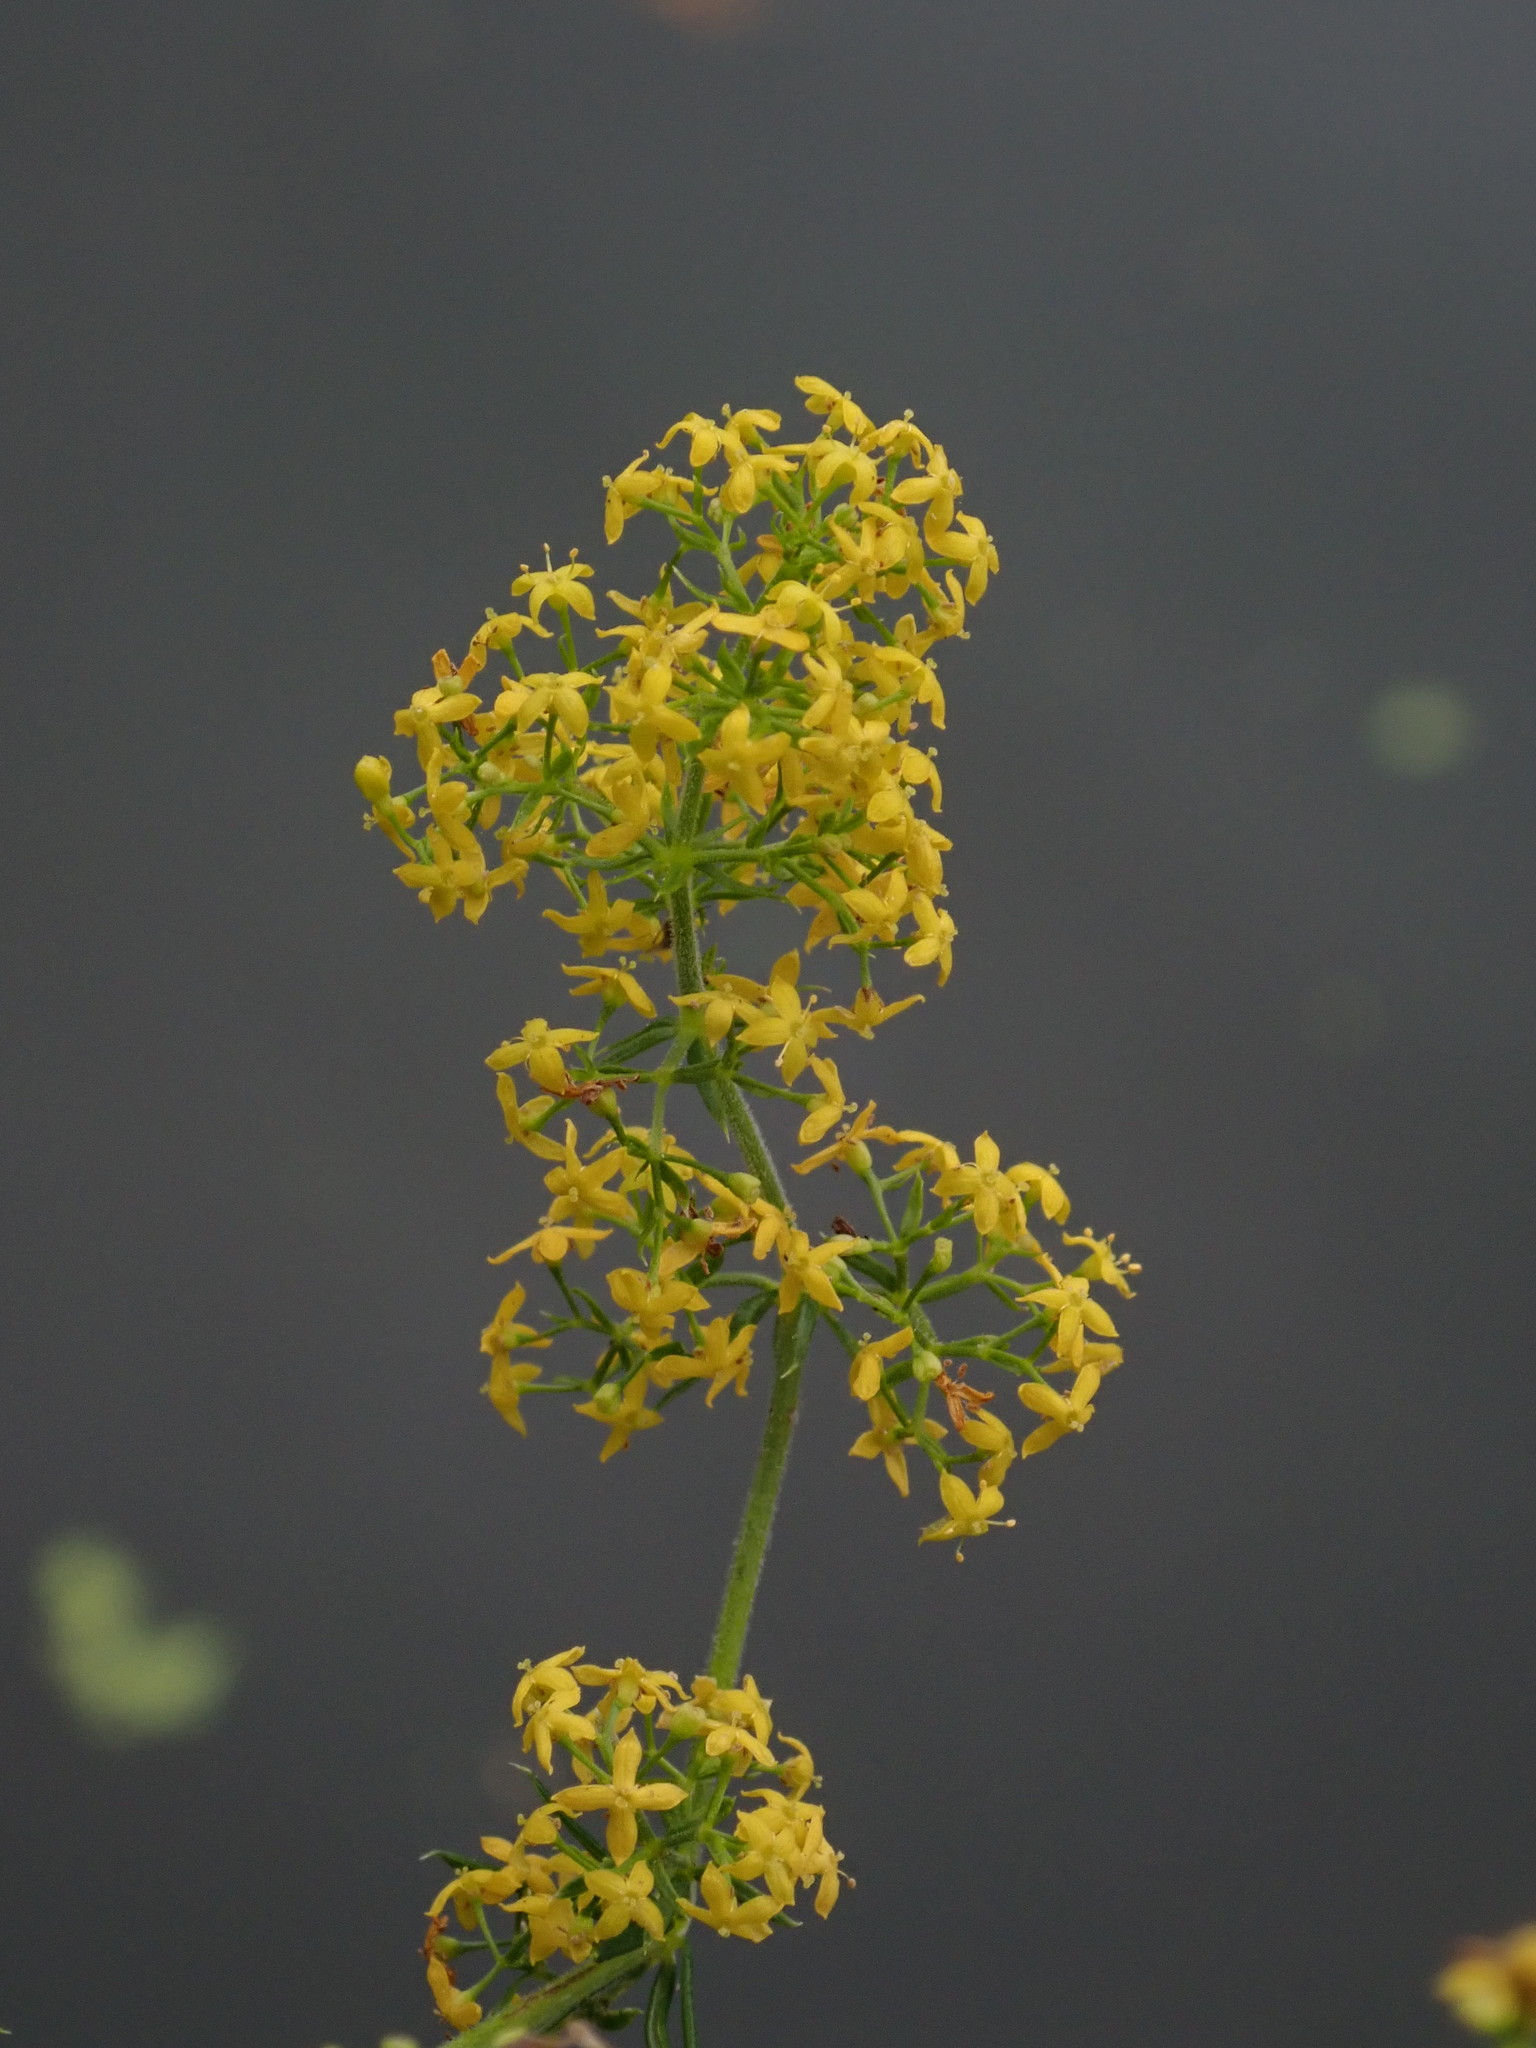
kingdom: Plantae
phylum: Tracheophyta
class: Magnoliopsida
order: Gentianales
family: Rubiaceae
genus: Galium
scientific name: Galium verum
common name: Lady's bedstraw
